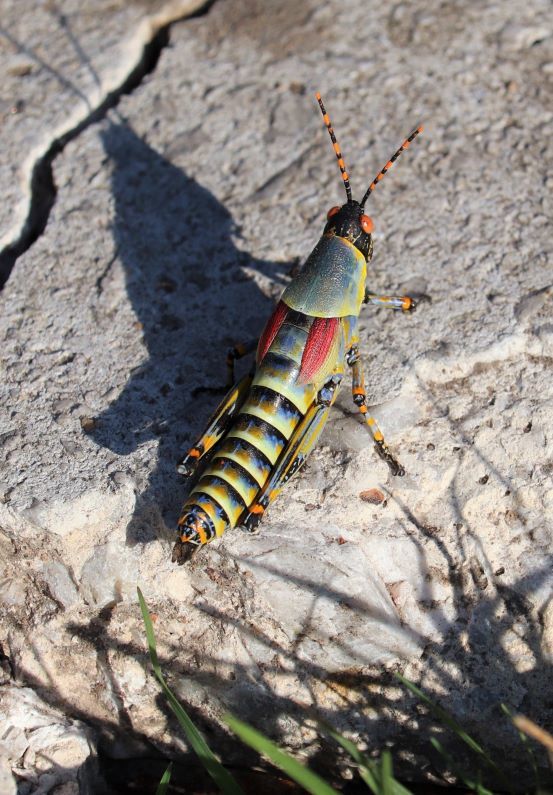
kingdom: Animalia
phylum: Arthropoda
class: Insecta
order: Orthoptera
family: Pyrgomorphidae
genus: Zonocerus
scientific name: Zonocerus elegans
